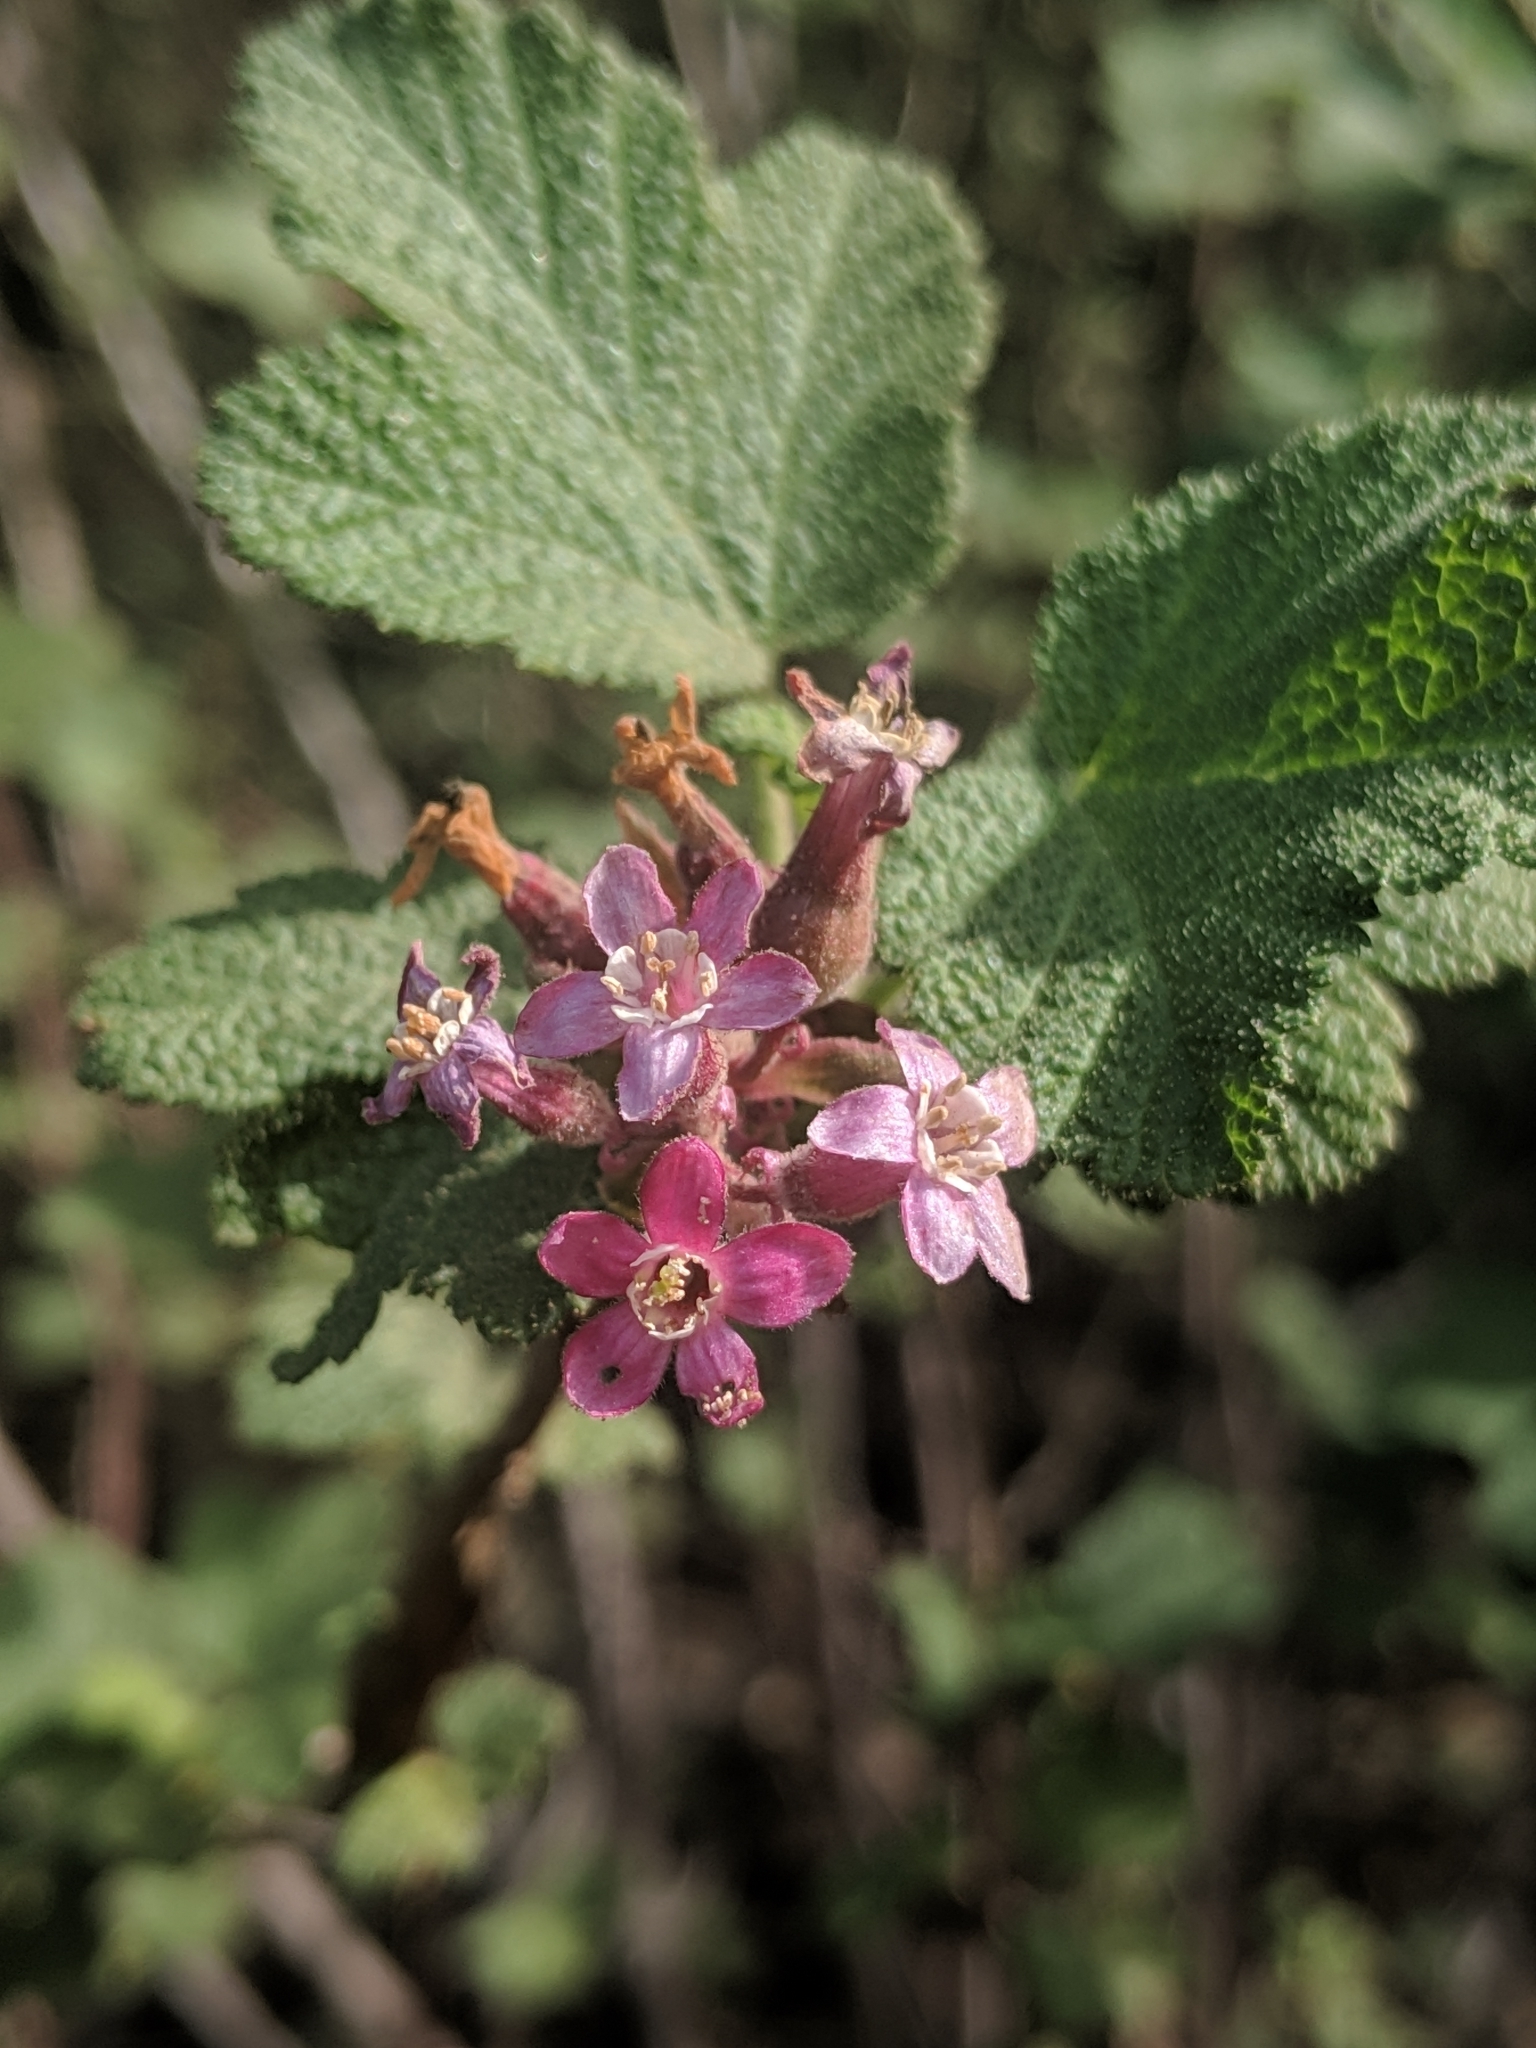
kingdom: Plantae
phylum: Tracheophyta
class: Magnoliopsida
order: Saxifragales
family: Grossulariaceae
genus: Ribes
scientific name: Ribes malvaceum
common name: Chaparral currant
